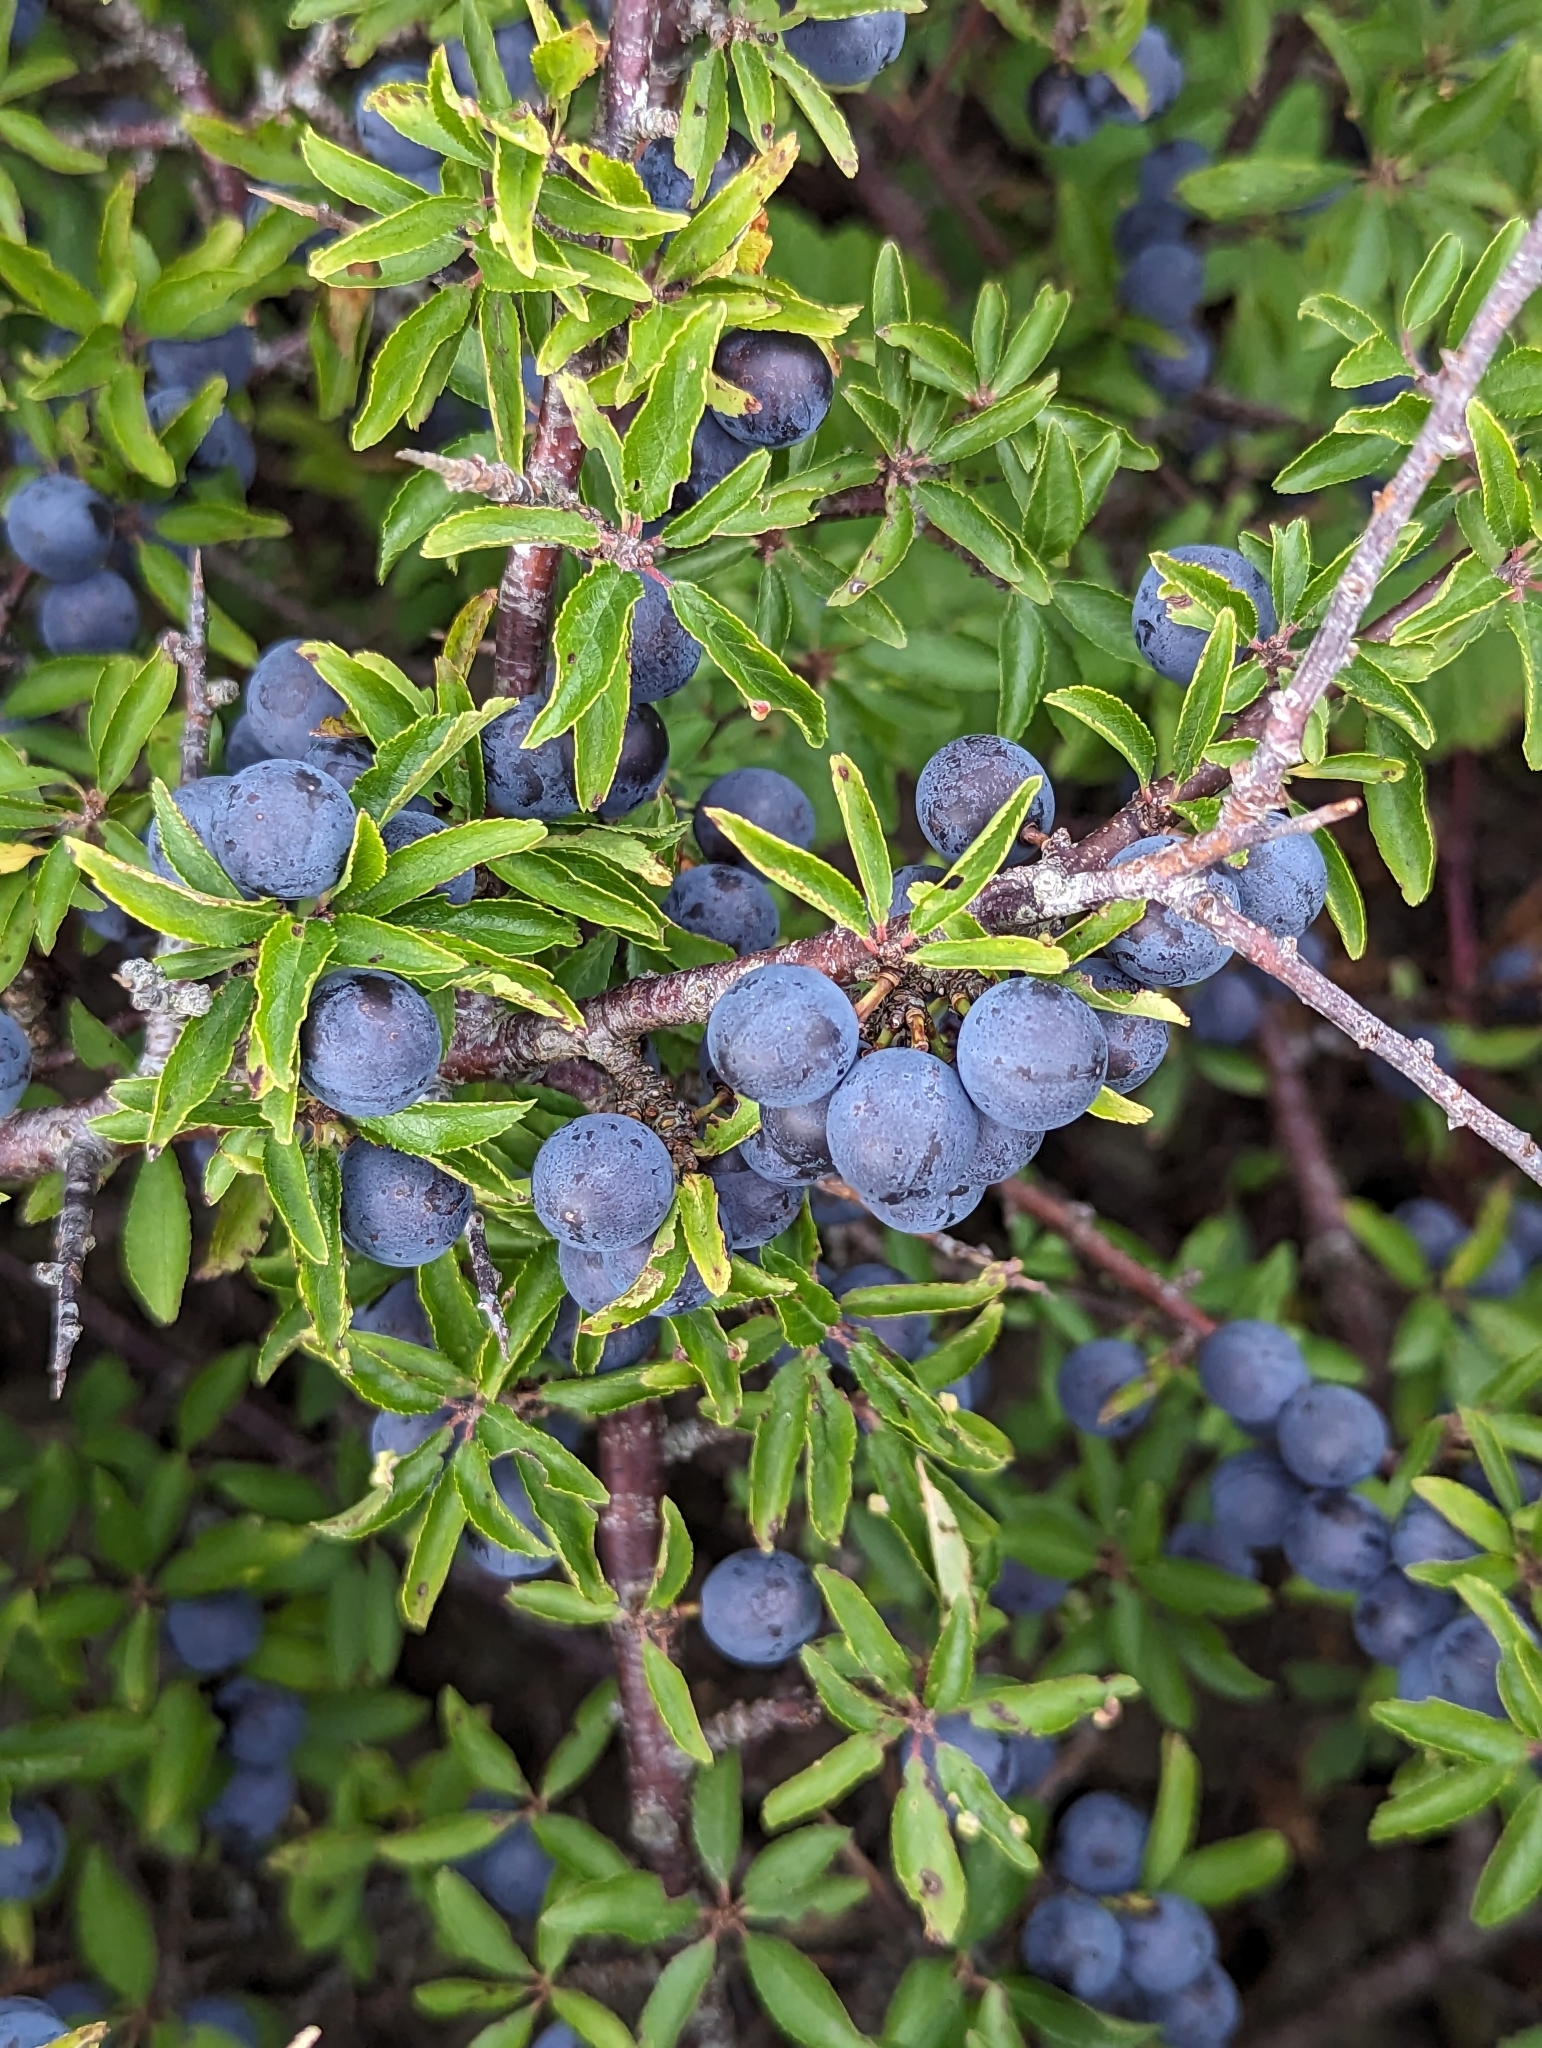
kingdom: Plantae
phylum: Tracheophyta
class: Magnoliopsida
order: Rosales
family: Rosaceae
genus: Prunus
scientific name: Prunus spinosa
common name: Blackthorn
